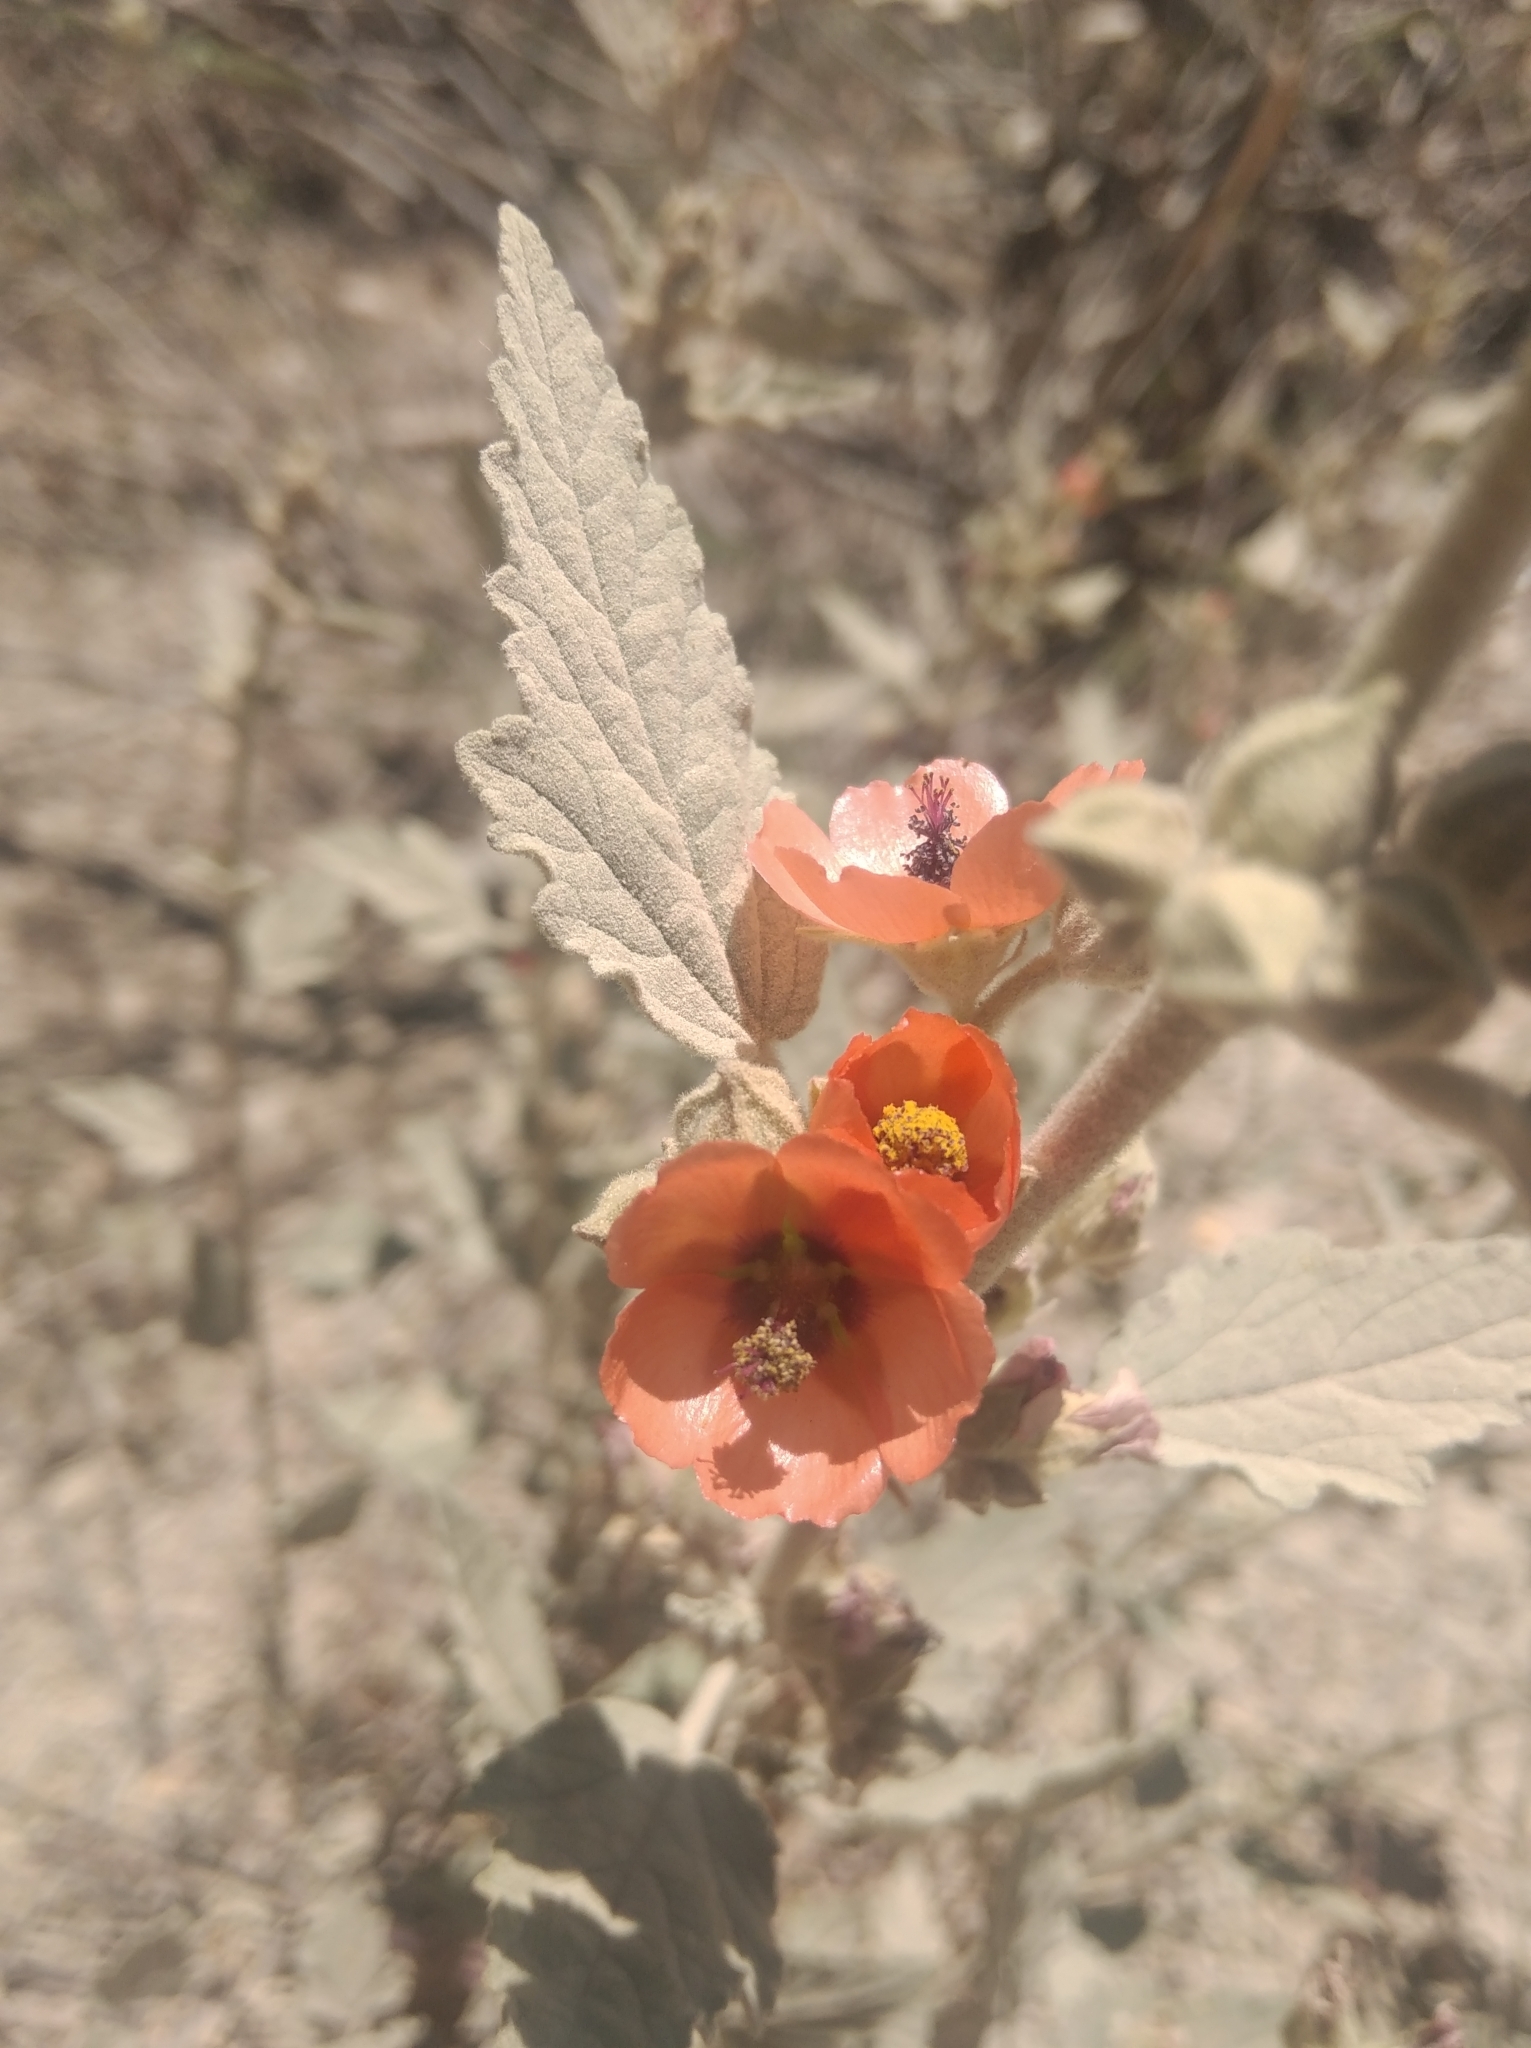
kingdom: Plantae
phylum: Tracheophyta
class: Magnoliopsida
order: Malvales
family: Malvaceae
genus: Sphaeralcea
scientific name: Sphaeralcea bonariensis
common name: Latin globemallow
